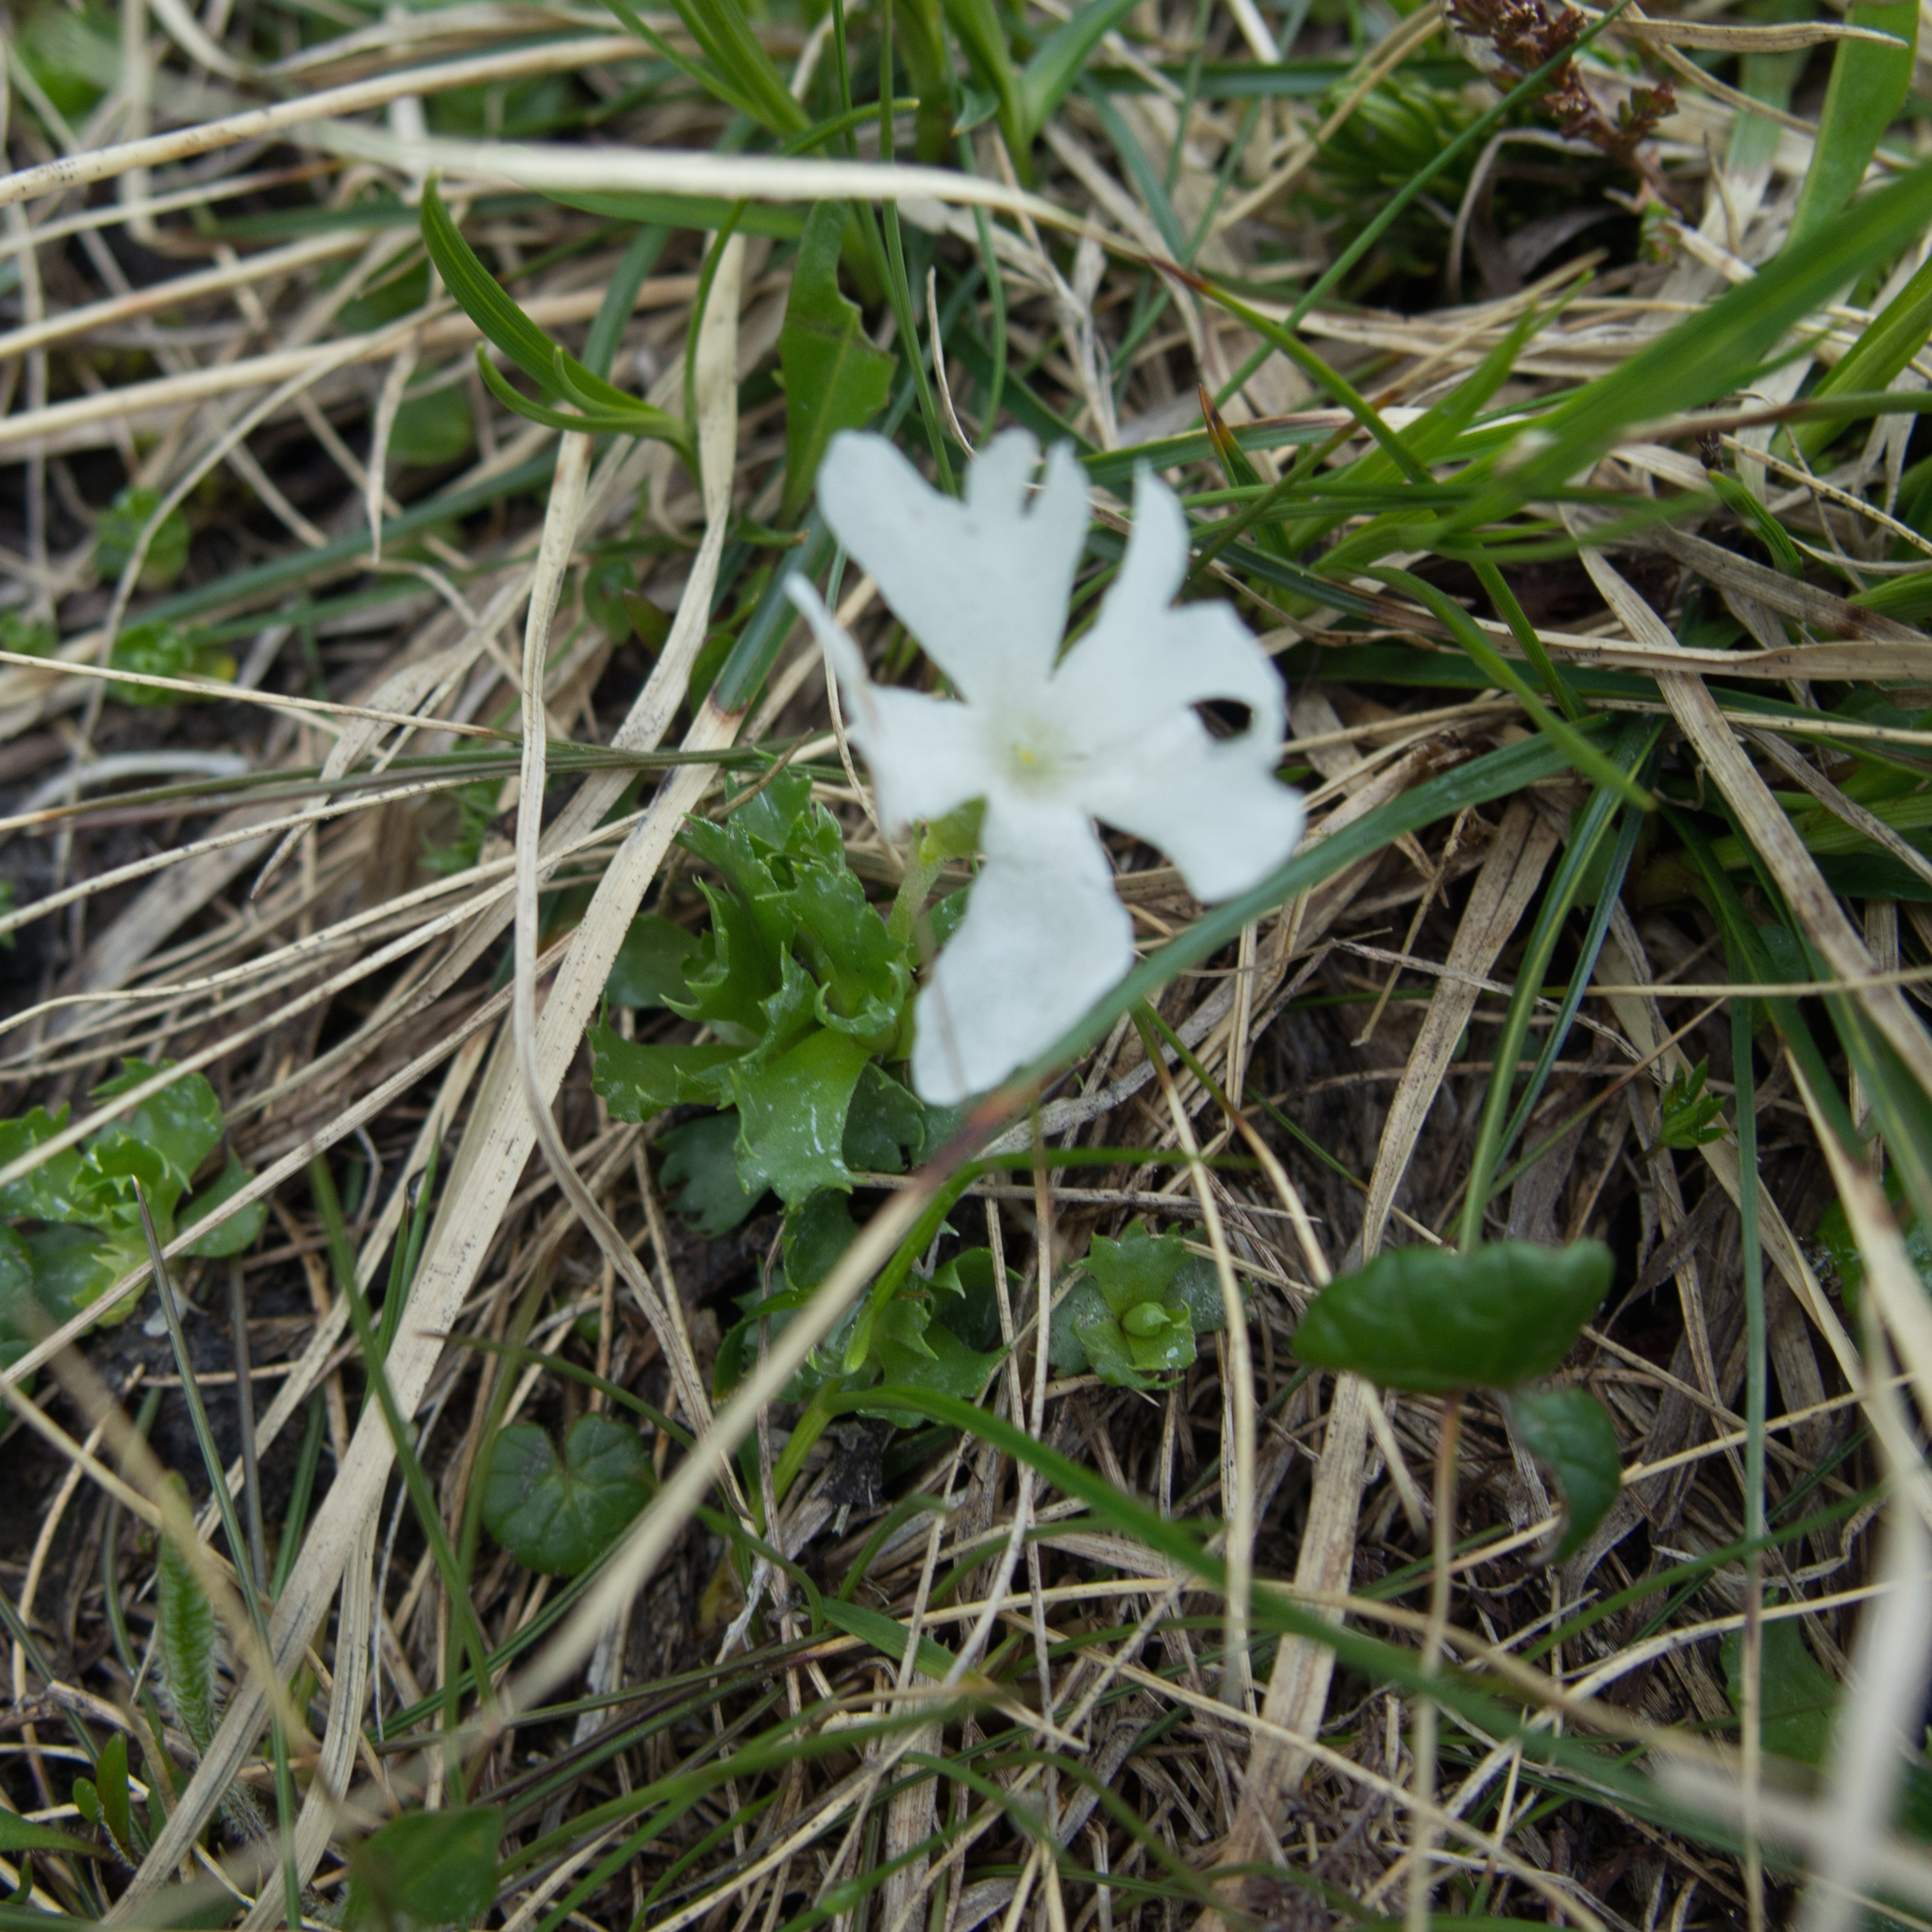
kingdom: Plantae
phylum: Tracheophyta
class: Magnoliopsida
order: Ericales
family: Primulaceae
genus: Primula
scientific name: Primula minima
